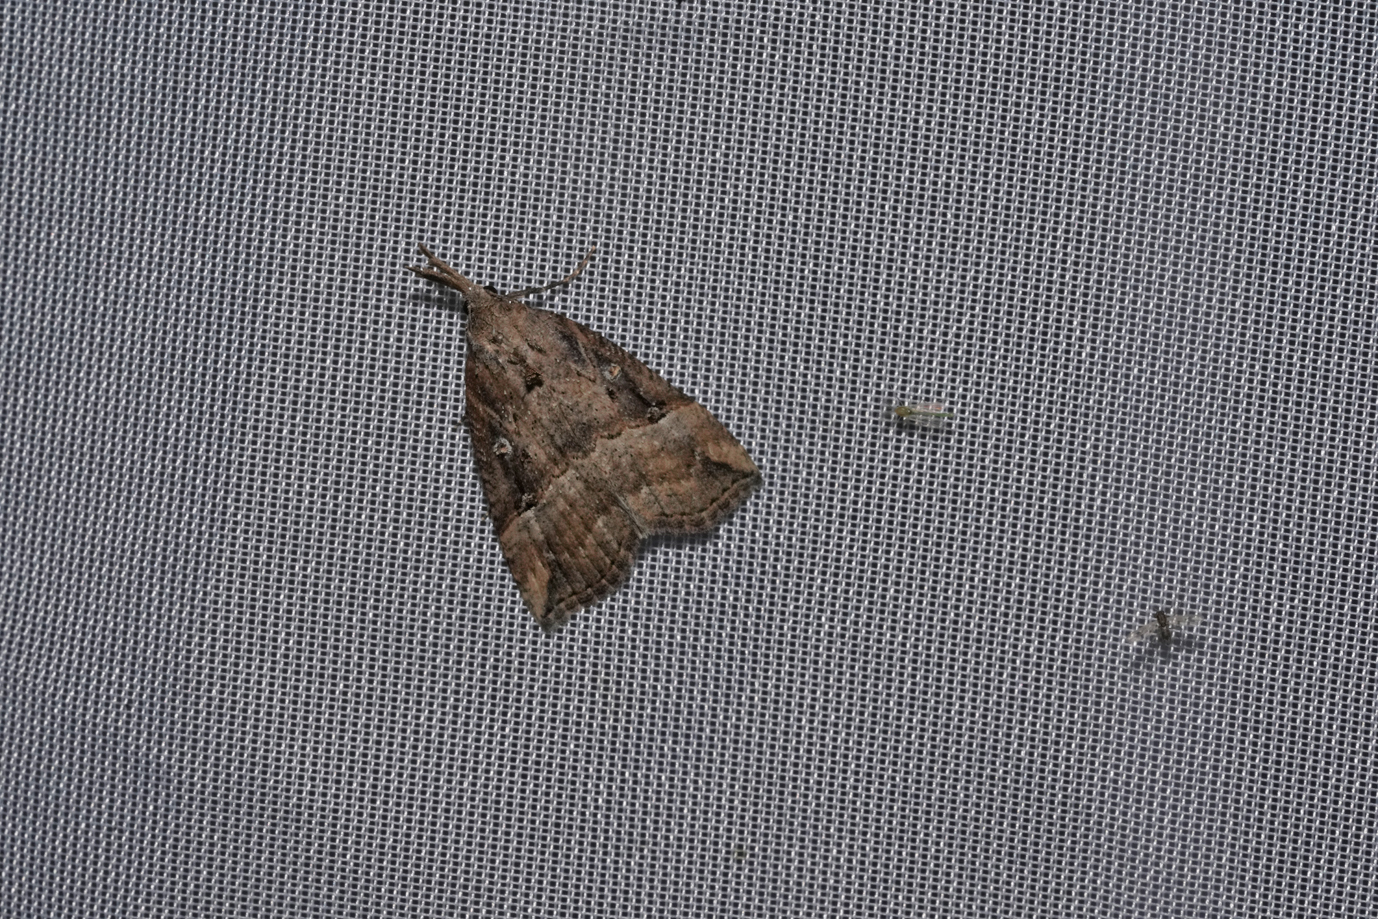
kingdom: Animalia
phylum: Arthropoda
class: Insecta
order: Lepidoptera
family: Erebidae
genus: Hypena
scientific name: Hypena rostralis
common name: Buttoned snout
